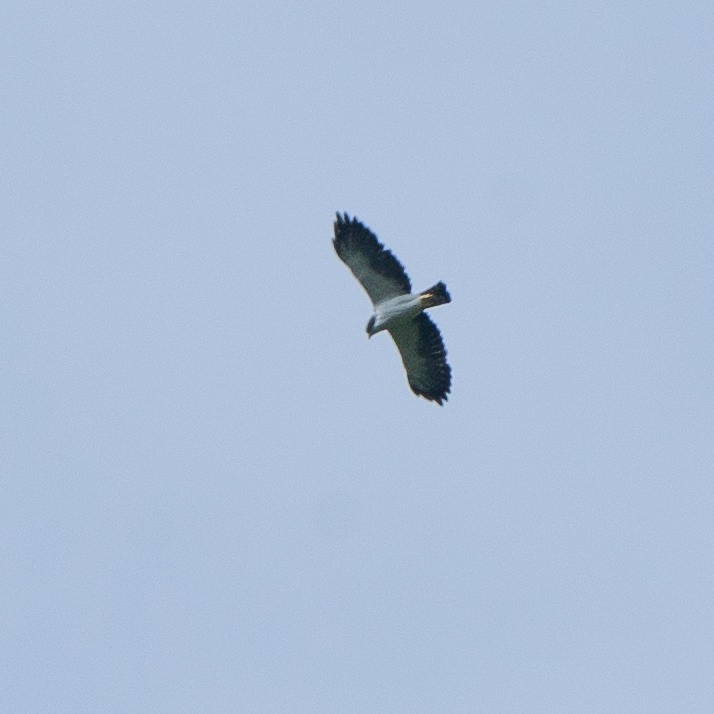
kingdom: Animalia
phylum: Chordata
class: Aves
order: Accipitriformes
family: Accipitridae
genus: Buteo
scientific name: Buteo brachyurus
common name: Short-tailed hawk
